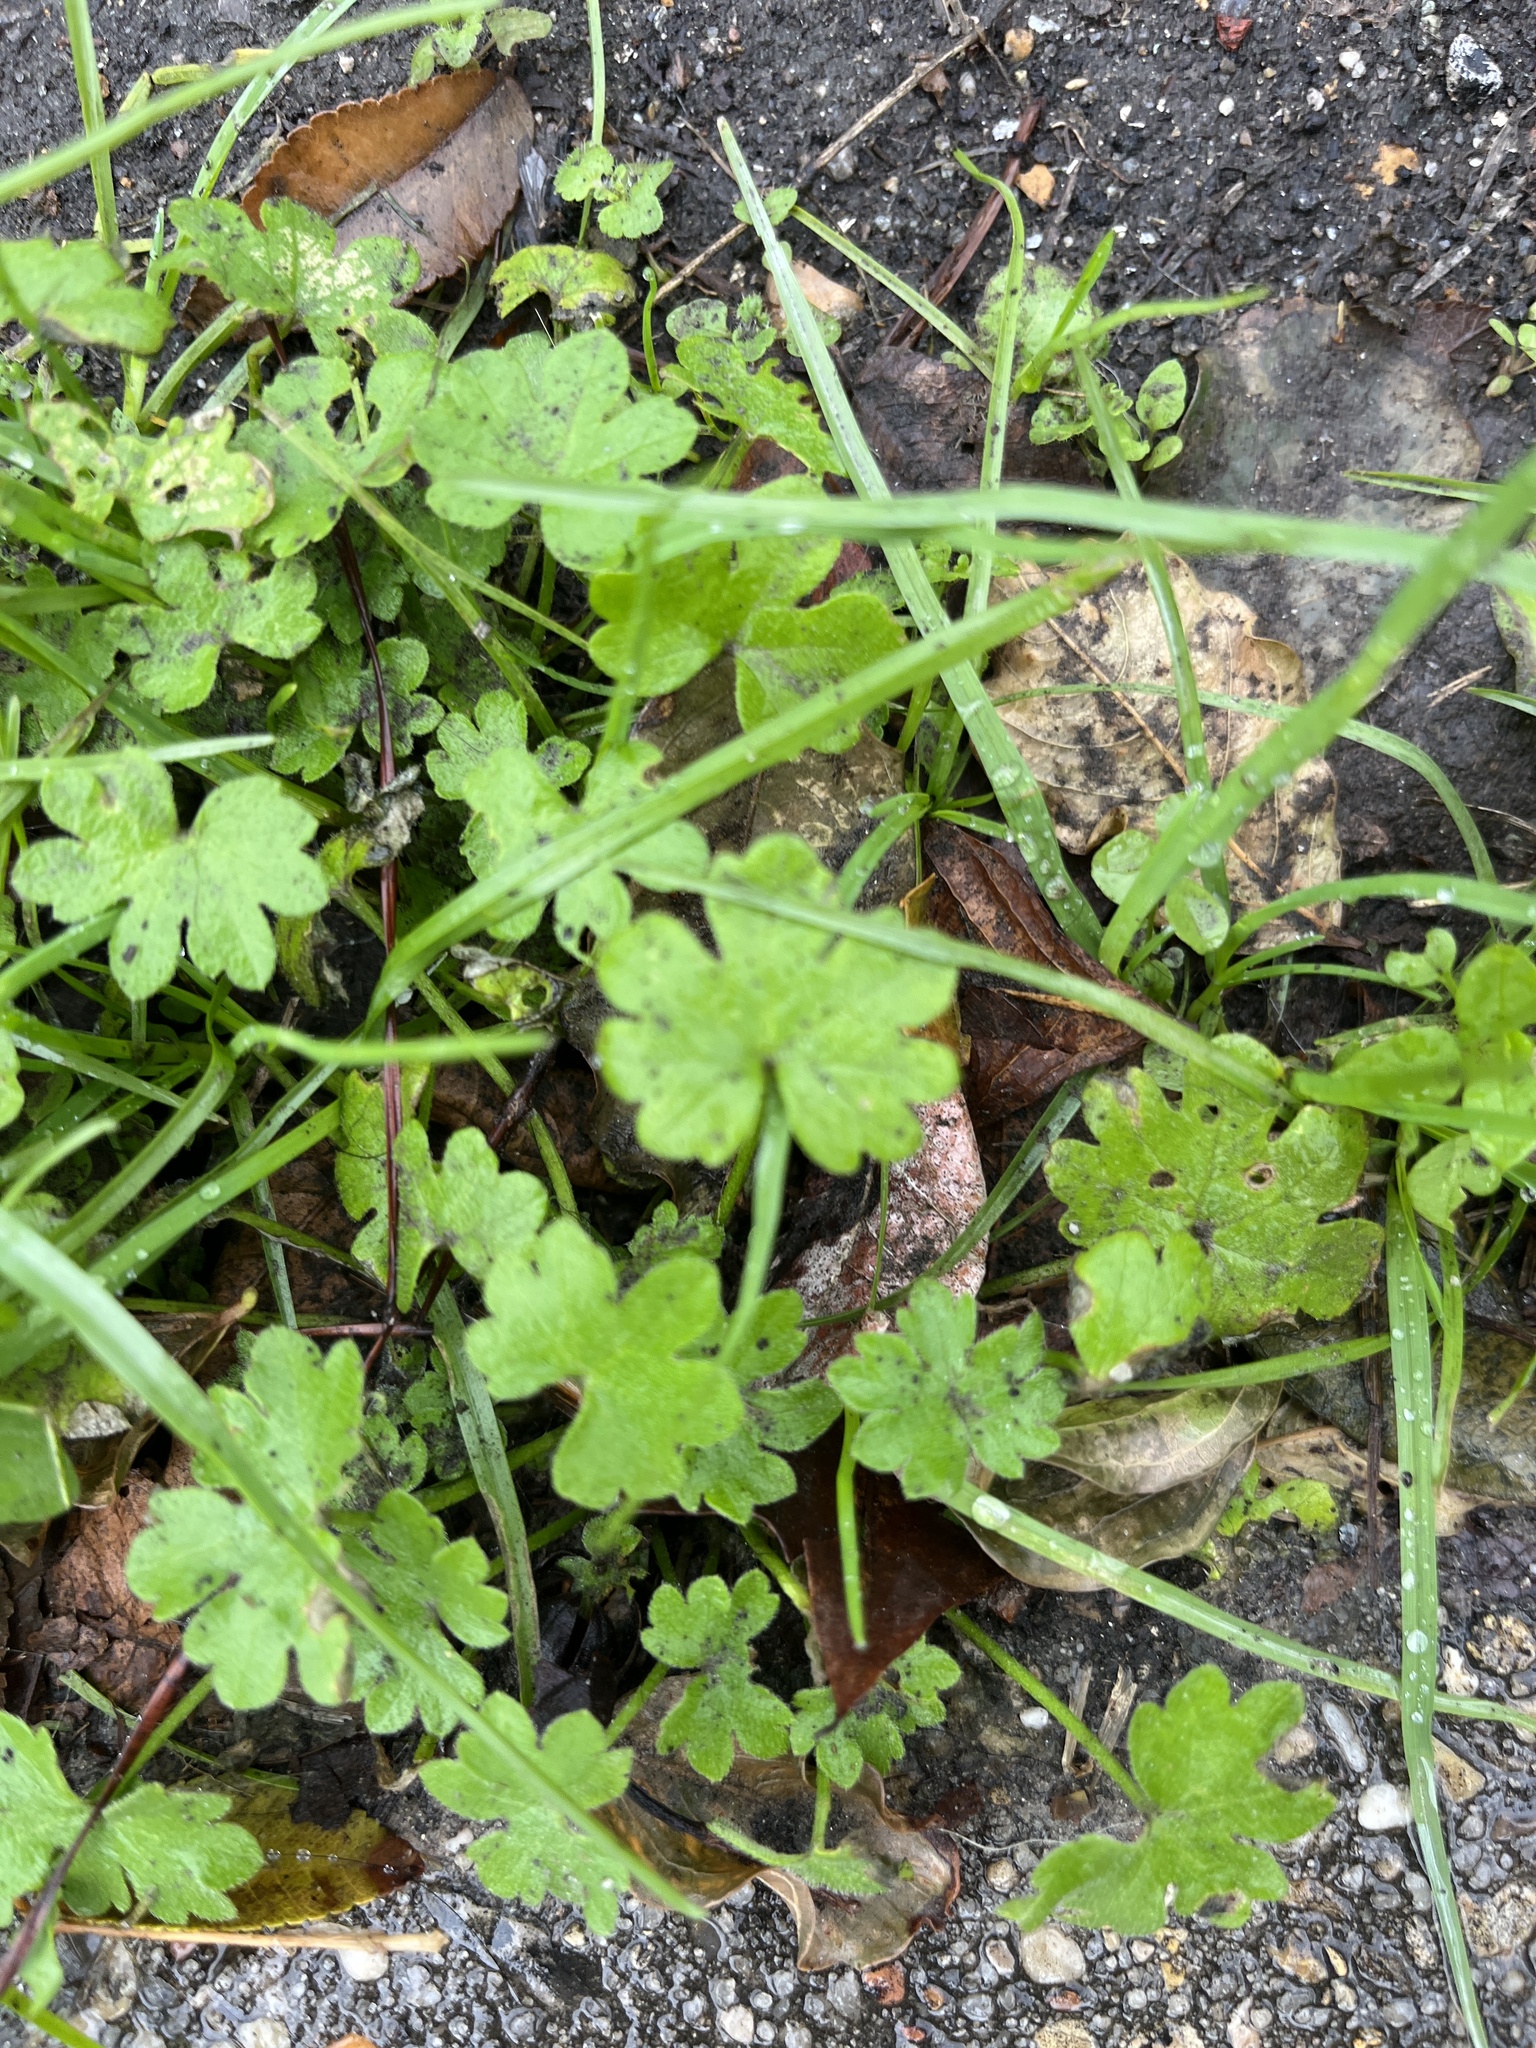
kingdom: Plantae
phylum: Tracheophyta
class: Magnoliopsida
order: Apiales
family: Apiaceae
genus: Bowlesia
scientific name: Bowlesia incana
